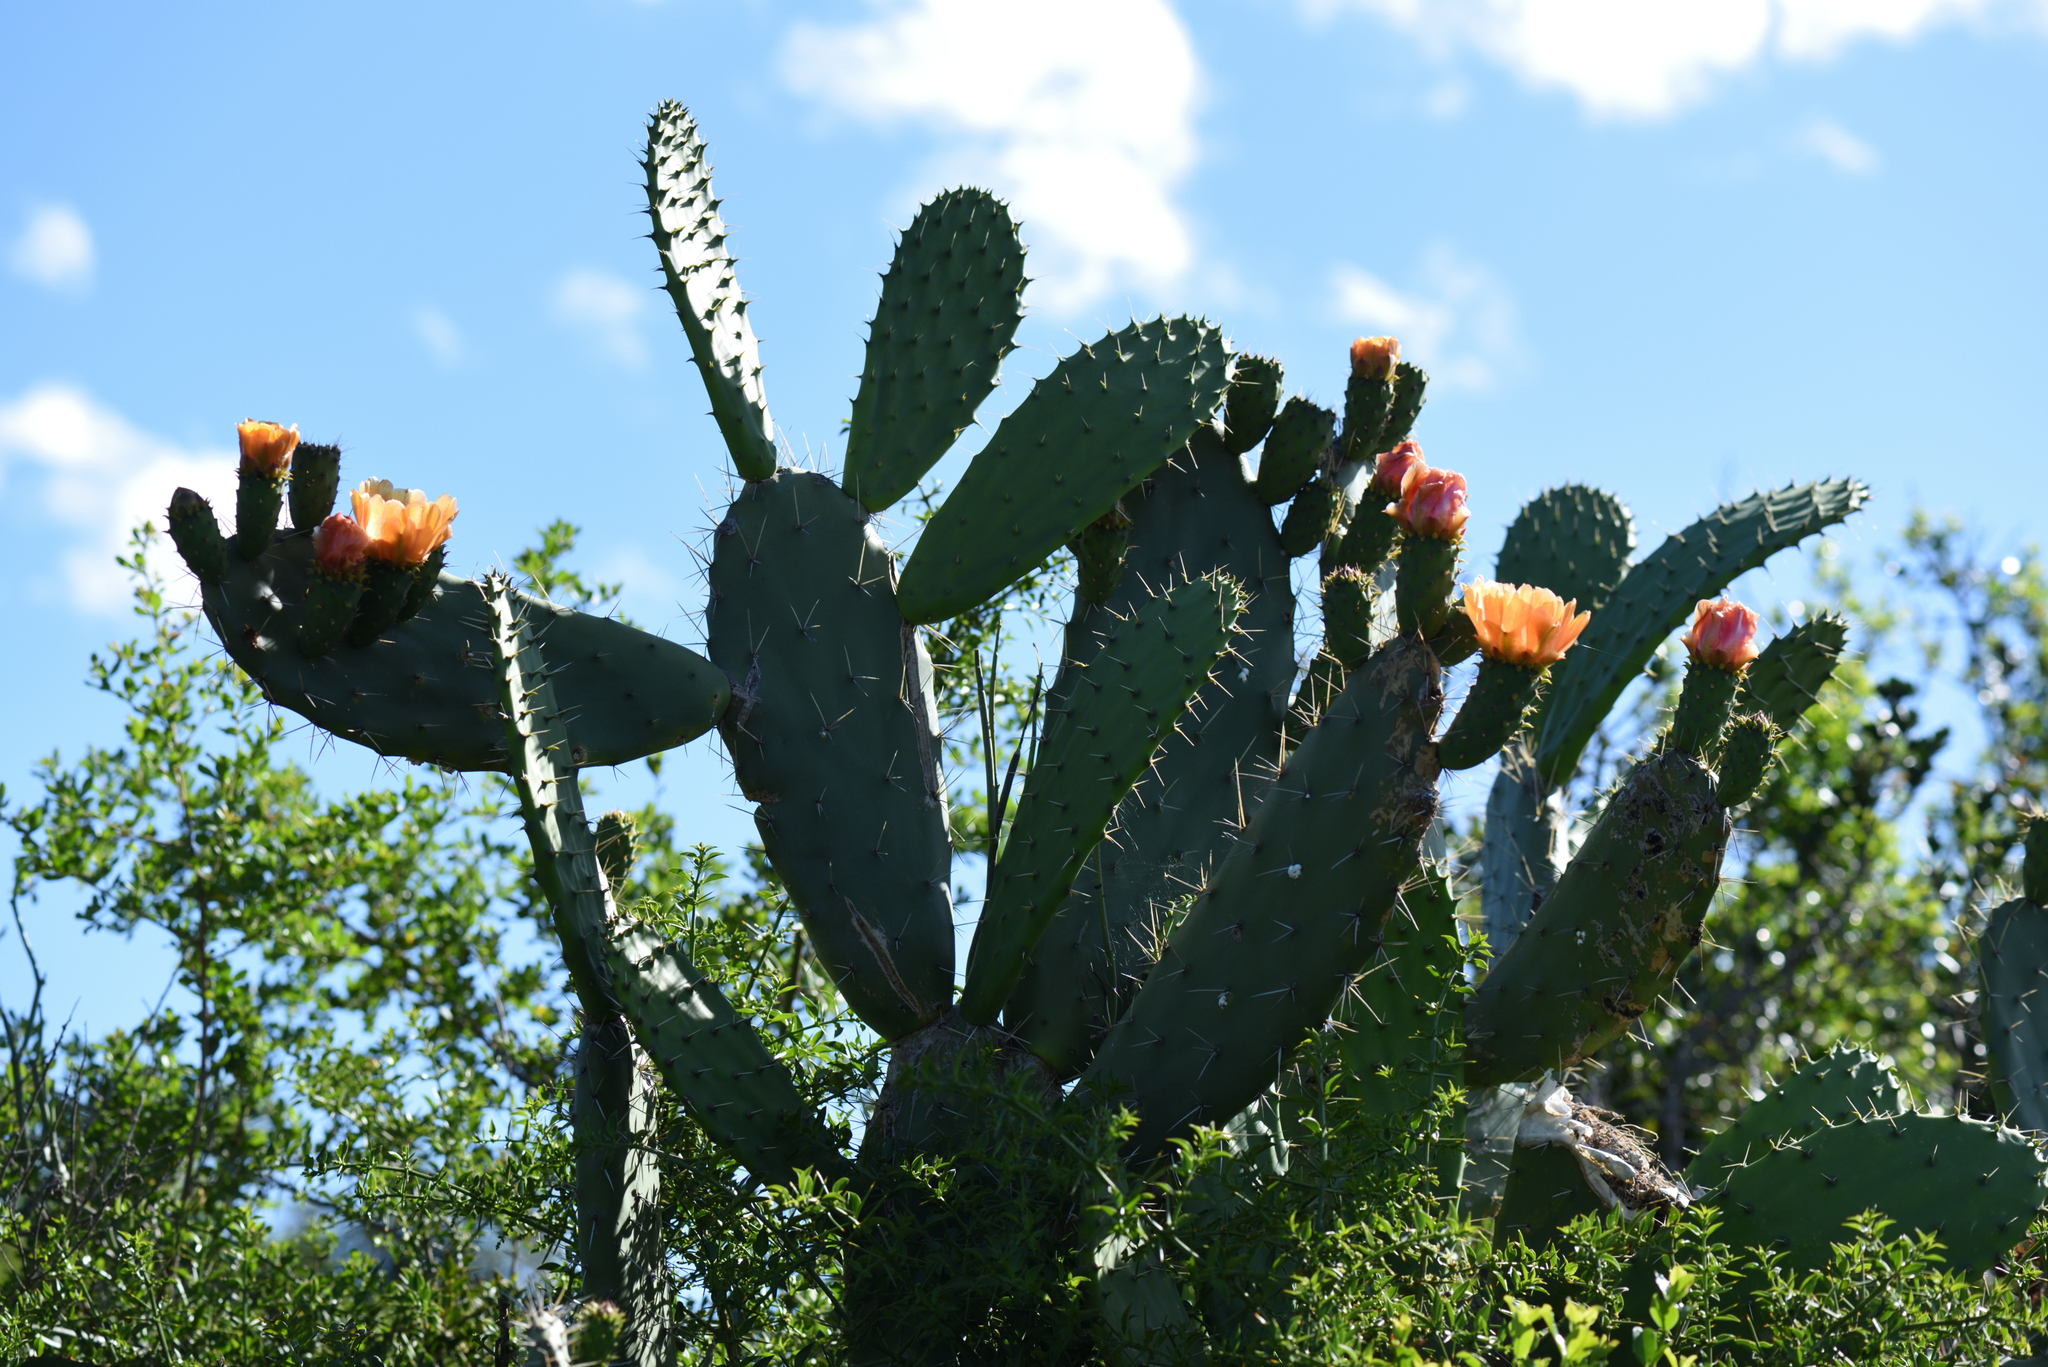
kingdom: Plantae
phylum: Tracheophyta
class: Magnoliopsida
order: Caryophyllales
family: Cactaceae
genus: Opuntia
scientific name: Opuntia ficus-indica
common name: Barbary fig
